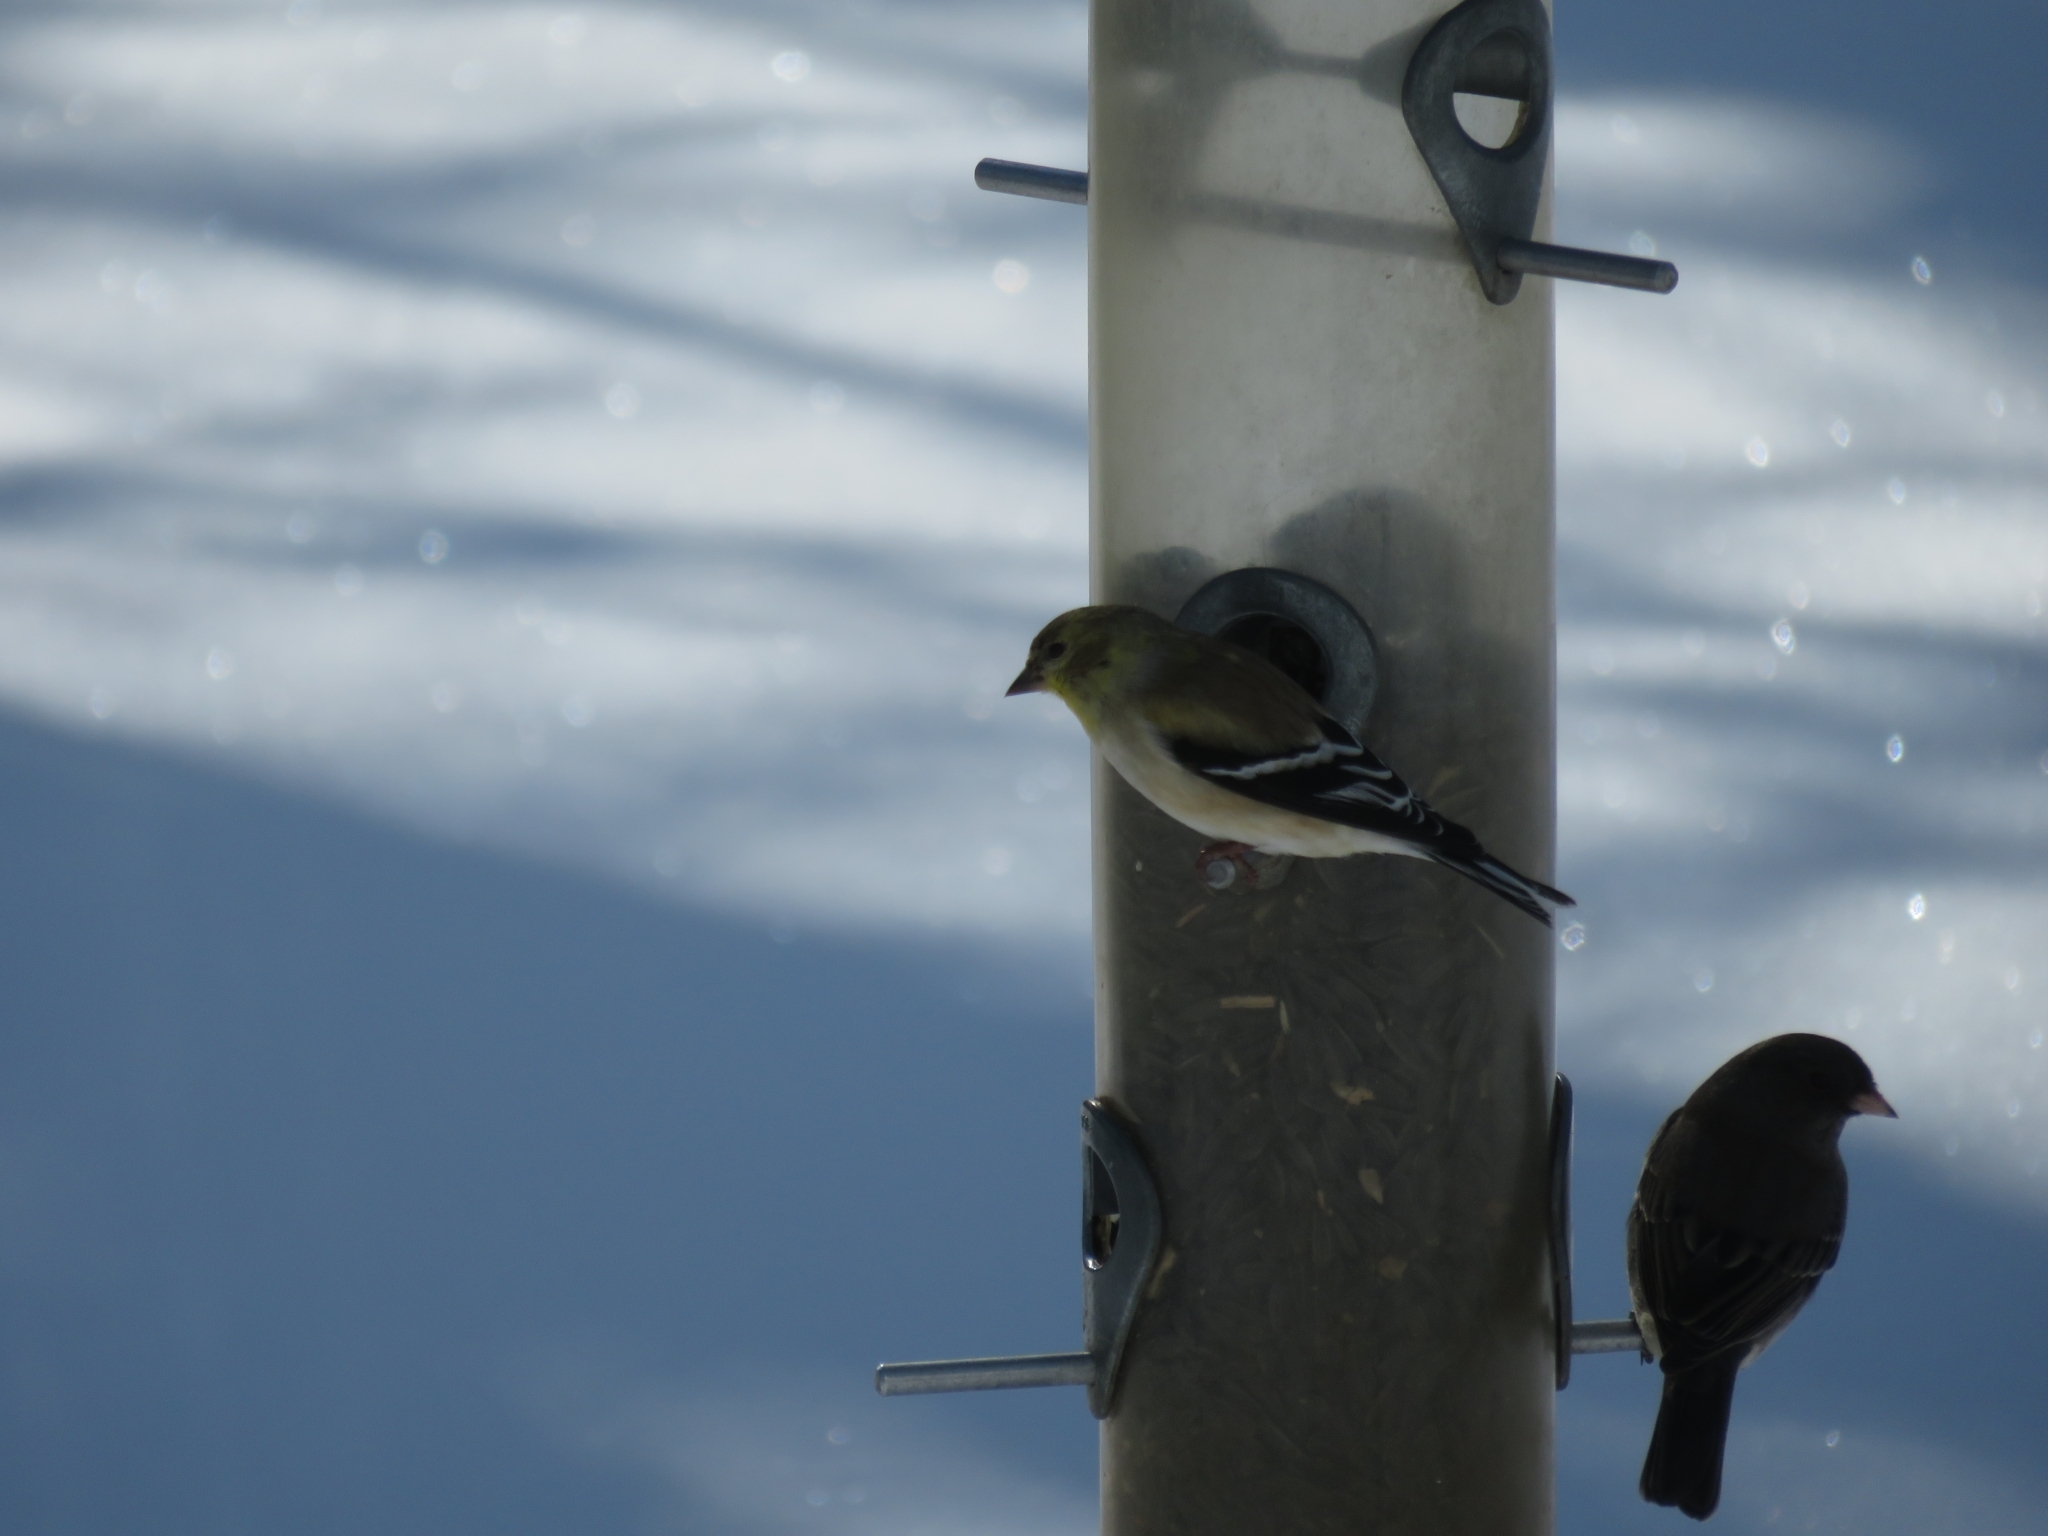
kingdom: Animalia
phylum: Chordata
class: Aves
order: Passeriformes
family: Fringillidae
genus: Spinus
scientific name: Spinus tristis
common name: American goldfinch
